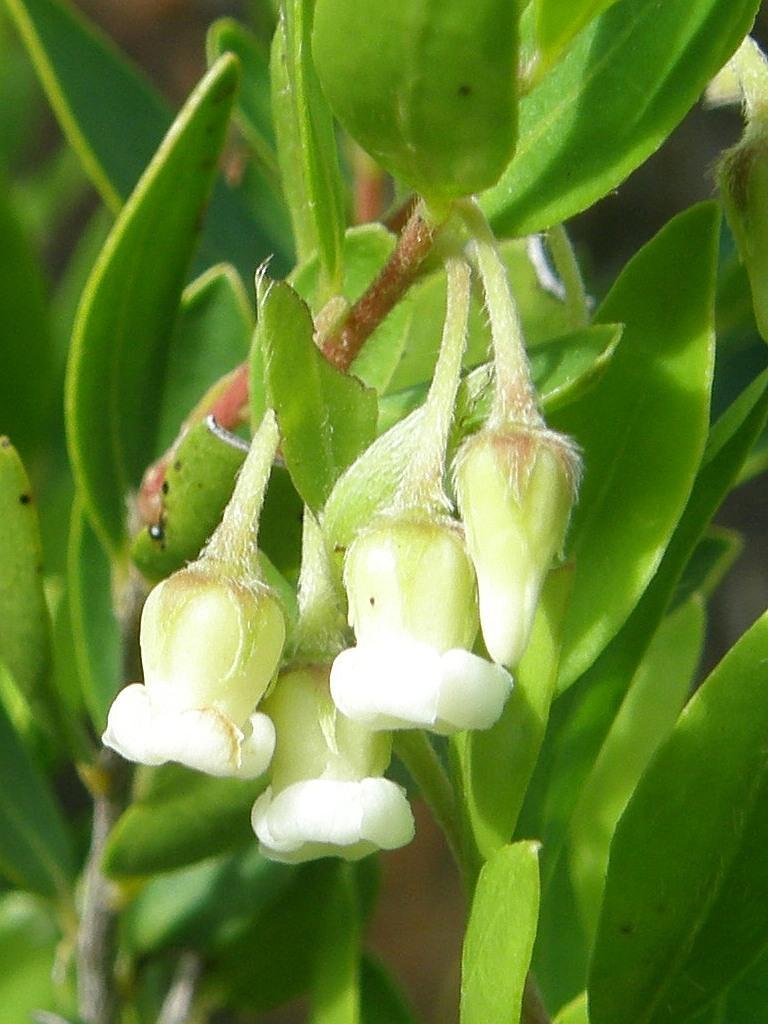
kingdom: Plantae
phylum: Tracheophyta
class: Magnoliopsida
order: Ericales
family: Ebenaceae
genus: Diospyros
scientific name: Diospyros glabra
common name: Fynbos star apple
